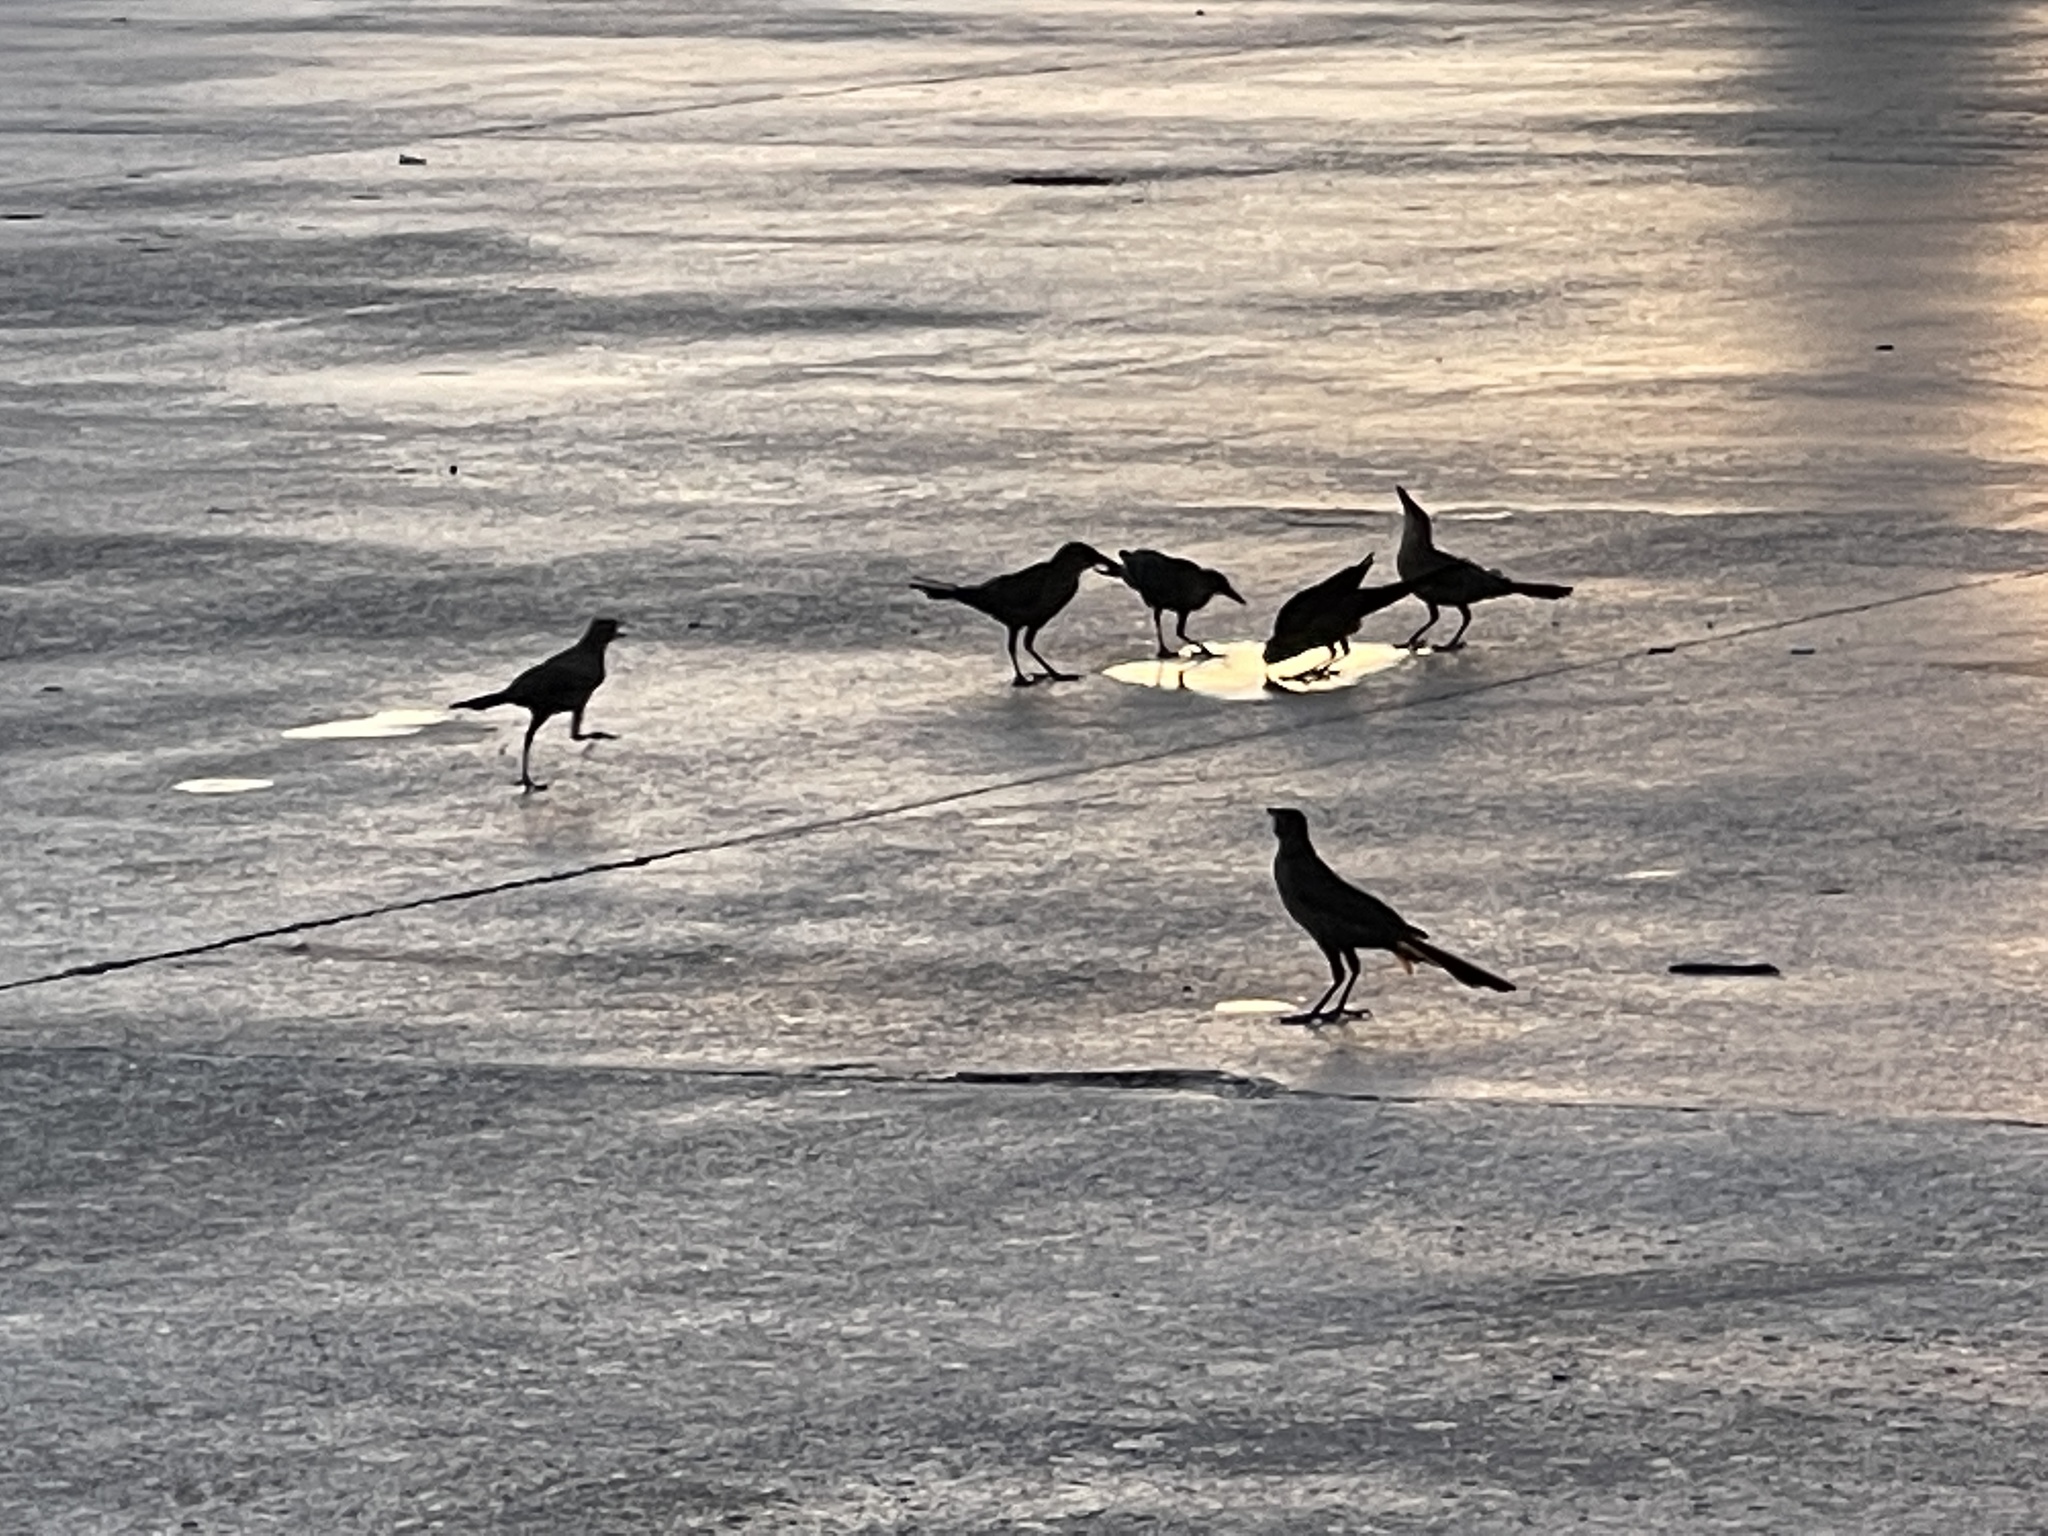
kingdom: Animalia
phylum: Chordata
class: Aves
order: Passeriformes
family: Icteridae
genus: Quiscalus
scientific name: Quiscalus mexicanus
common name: Great-tailed grackle
